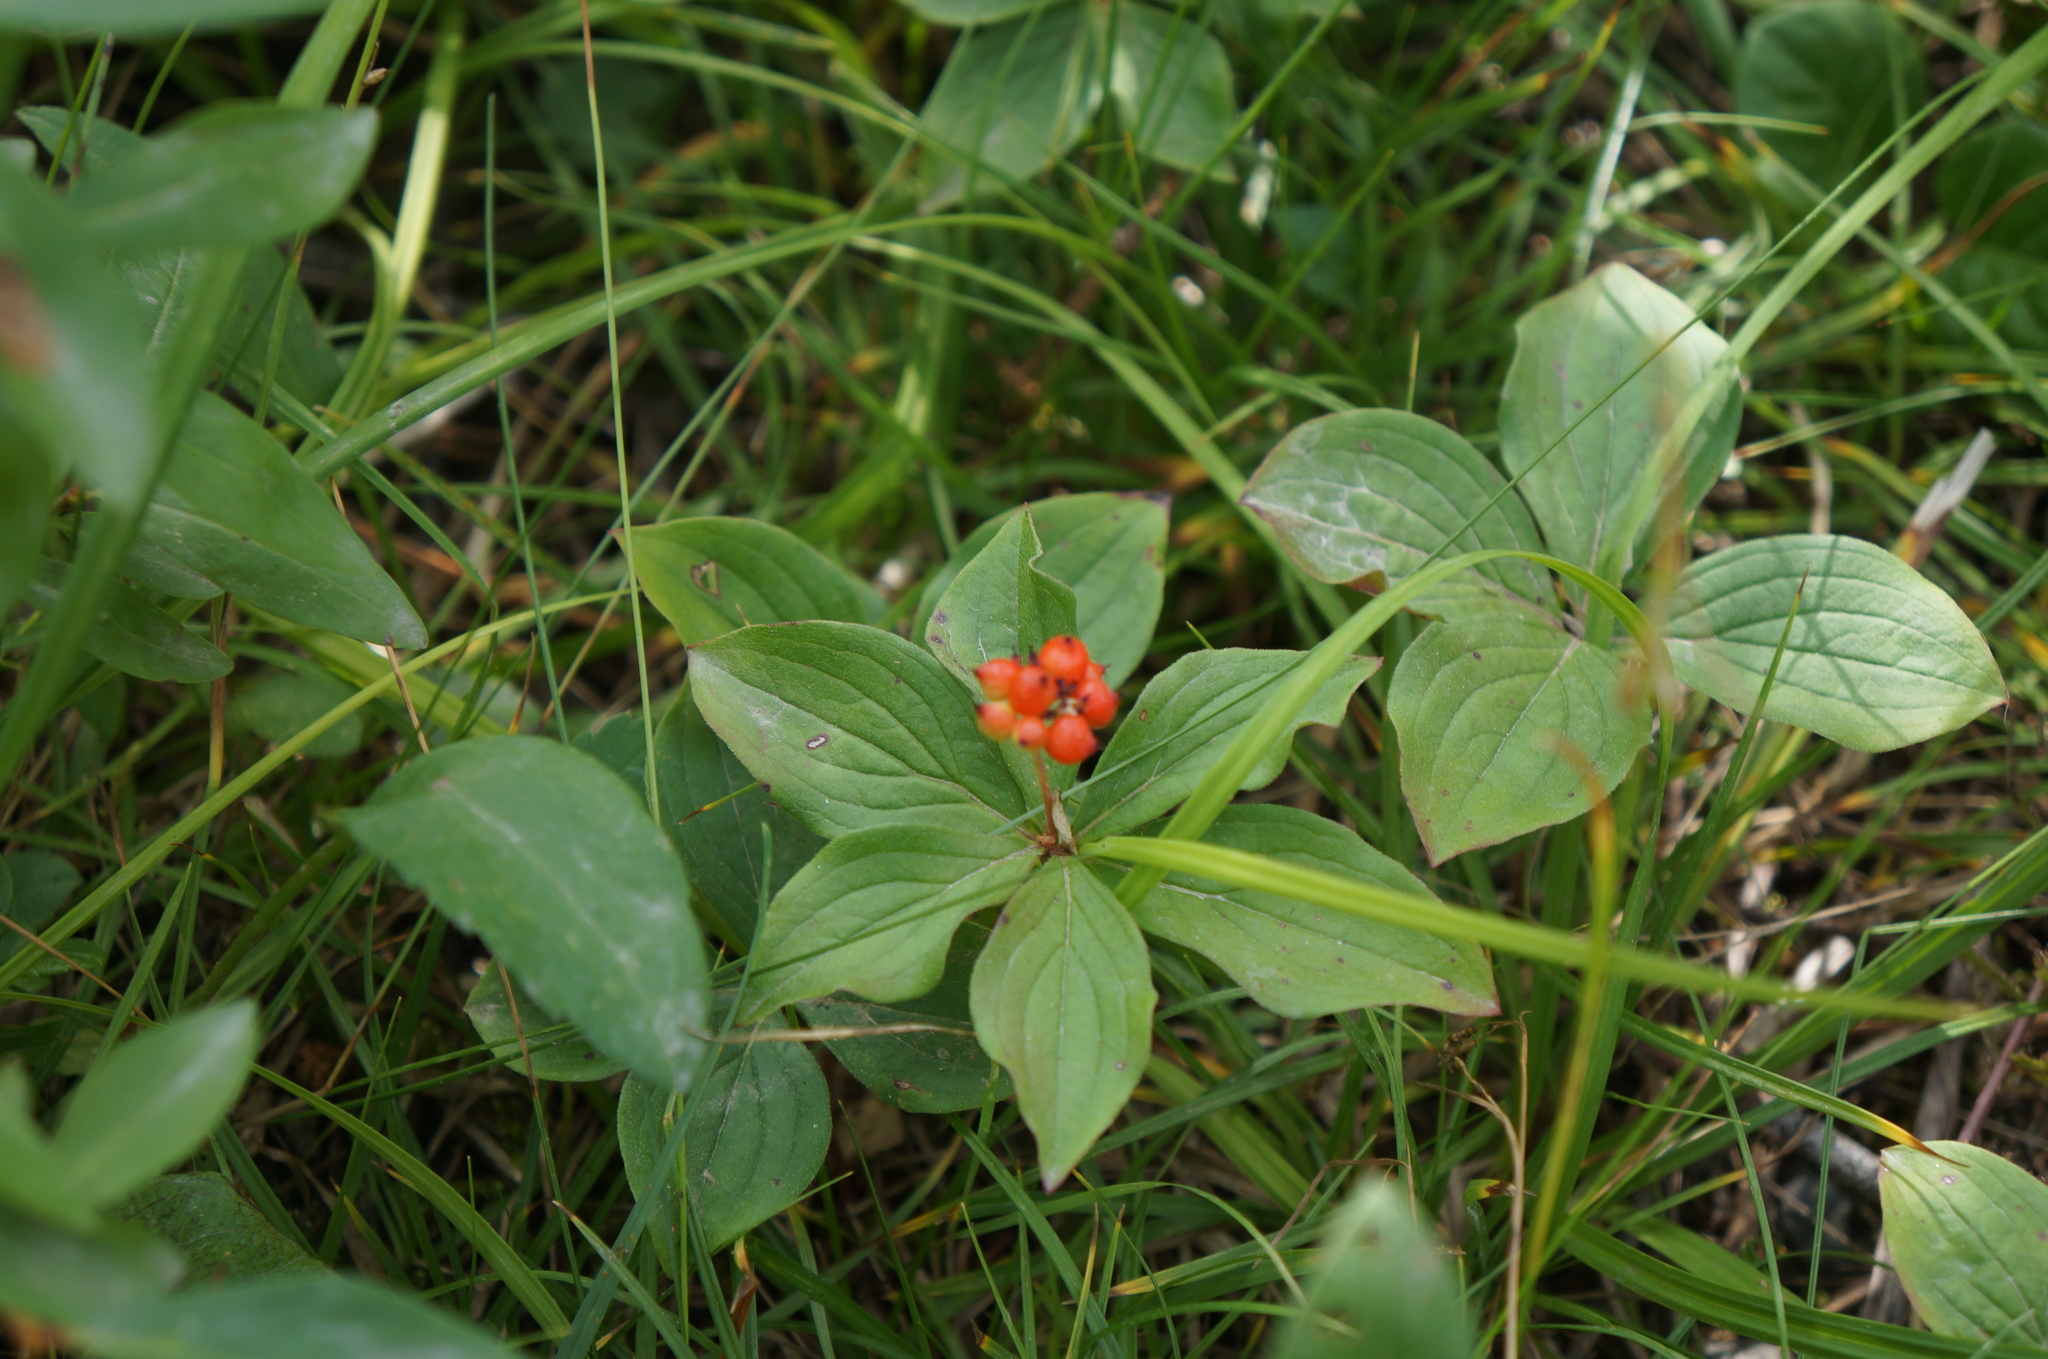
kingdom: Plantae
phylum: Tracheophyta
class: Magnoliopsida
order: Cornales
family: Cornaceae
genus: Cornus
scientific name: Cornus canadensis
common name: Creeping dogwood
